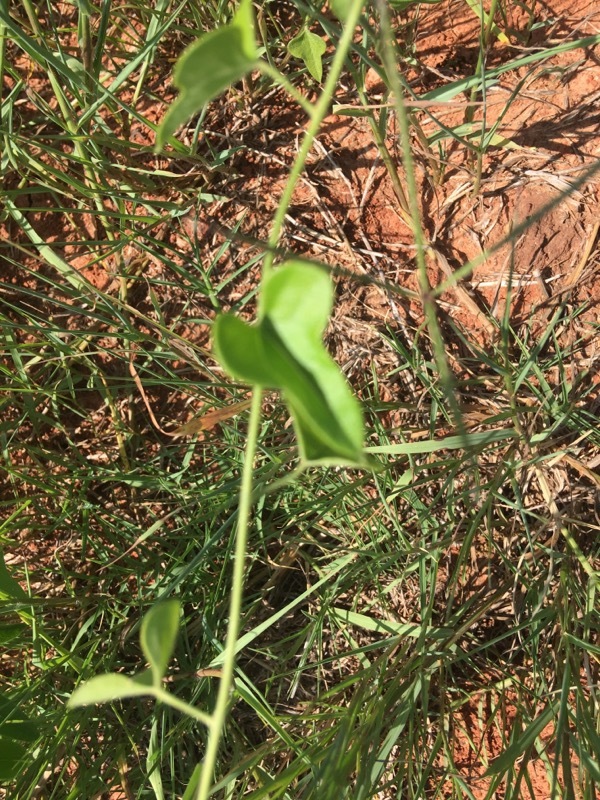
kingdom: Plantae
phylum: Tracheophyta
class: Liliopsida
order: Liliales
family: Smilacaceae
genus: Smilax
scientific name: Smilax bona-nox
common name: Catbrier
